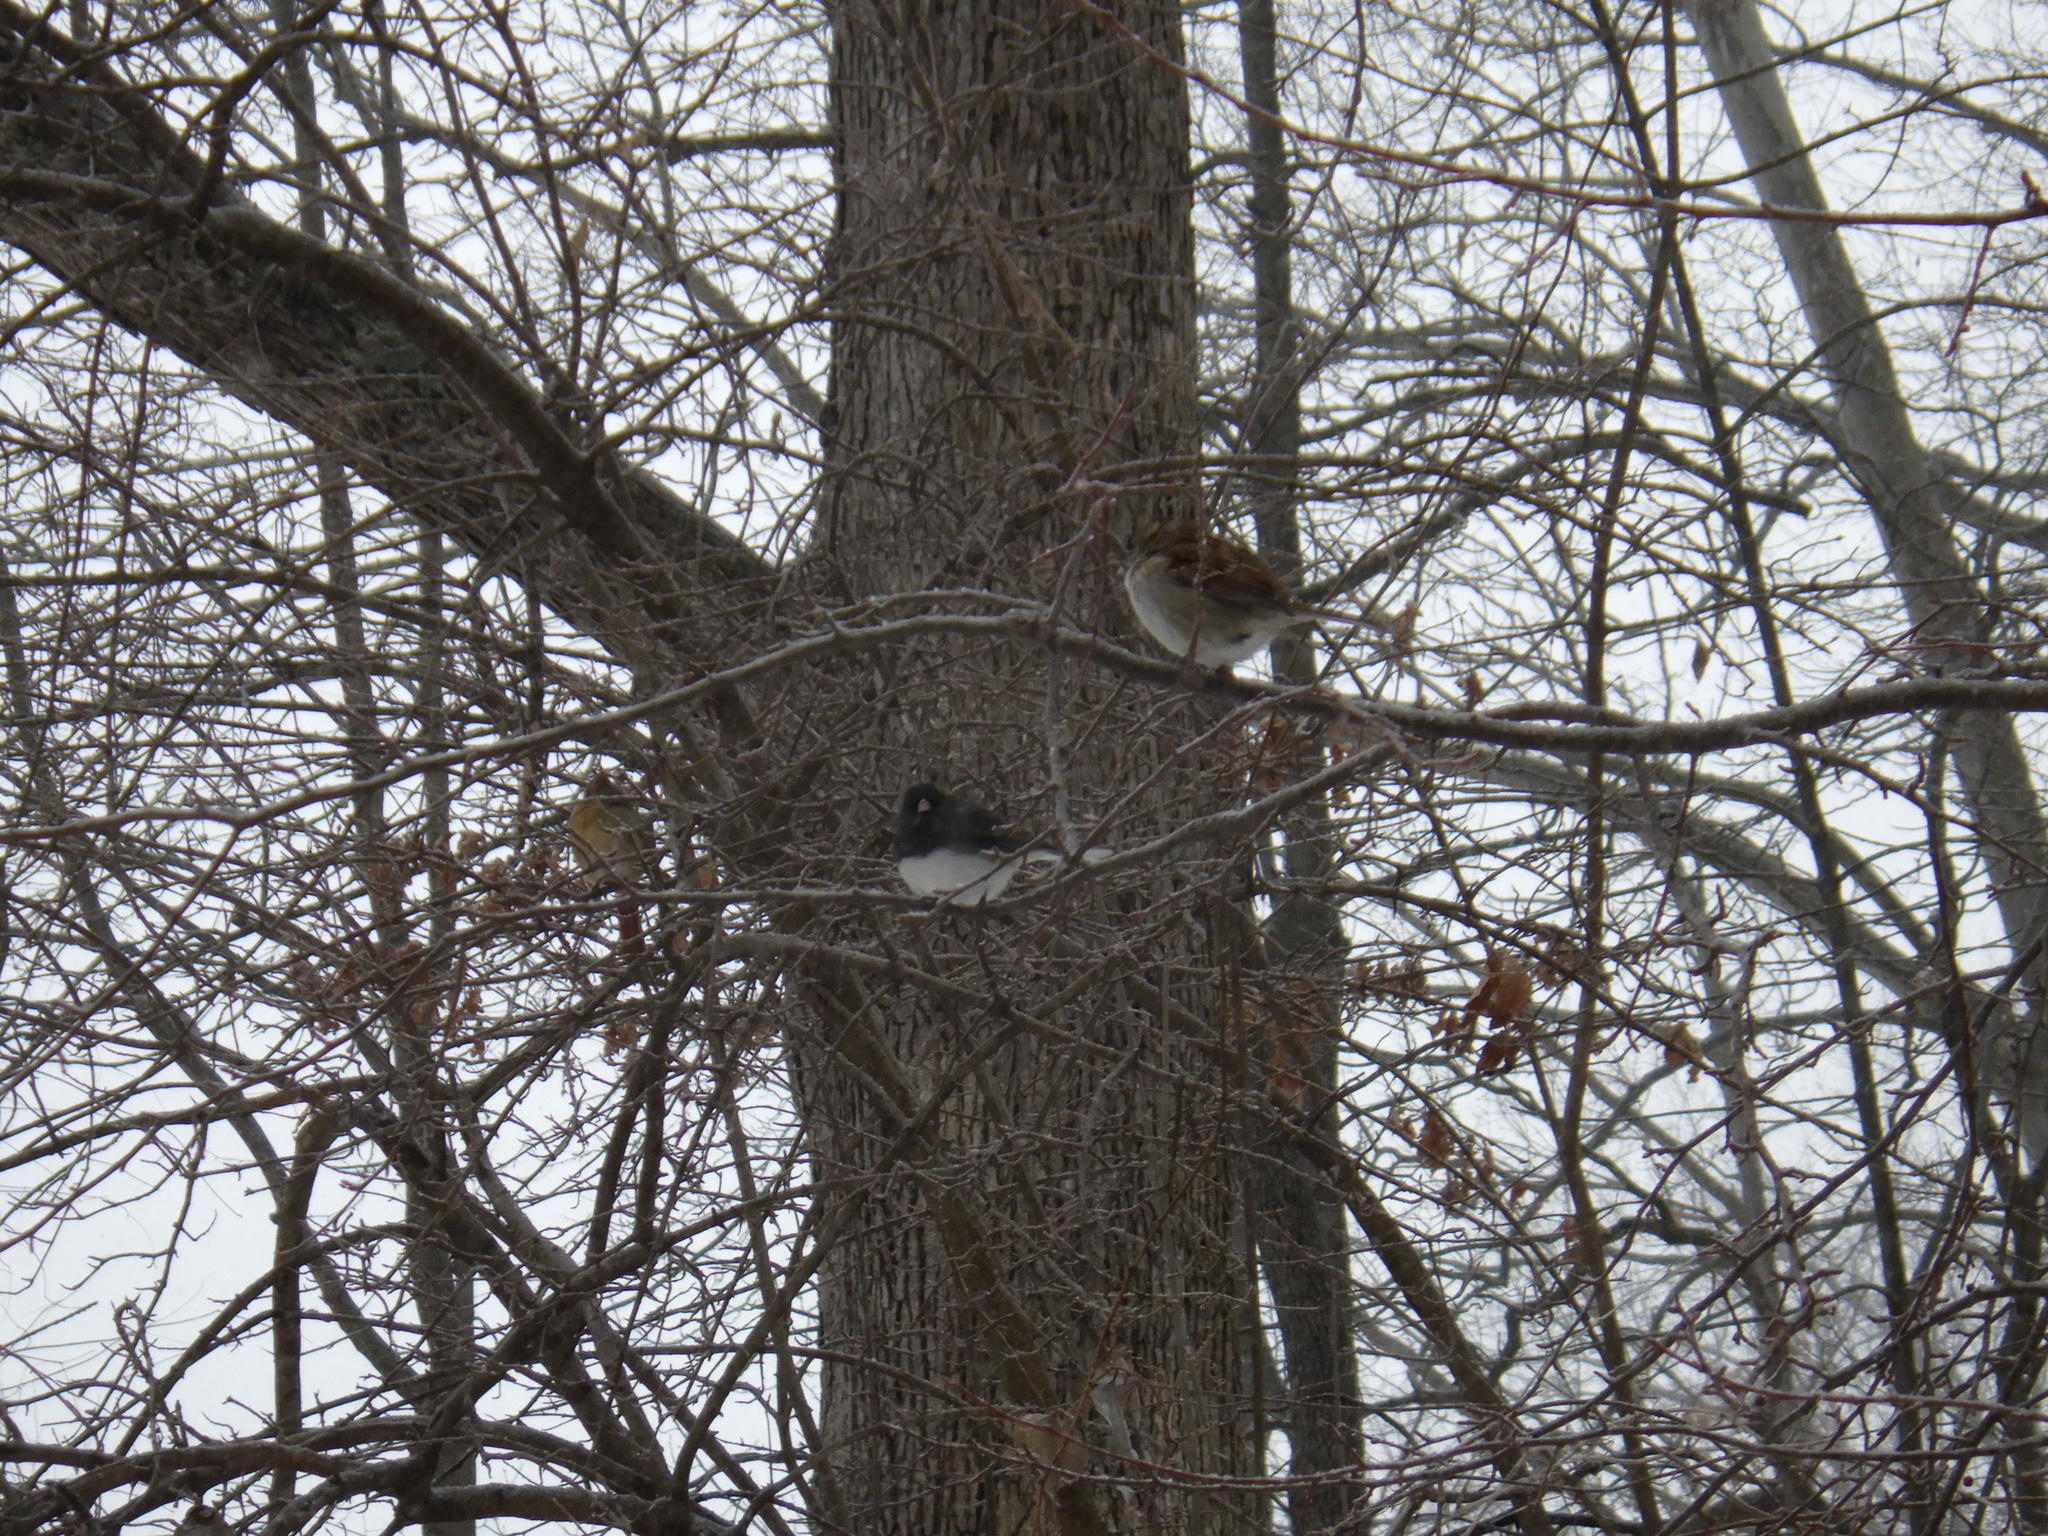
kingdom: Animalia
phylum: Chordata
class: Aves
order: Passeriformes
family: Passerellidae
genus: Junco
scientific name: Junco hyemalis
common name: Dark-eyed junco
